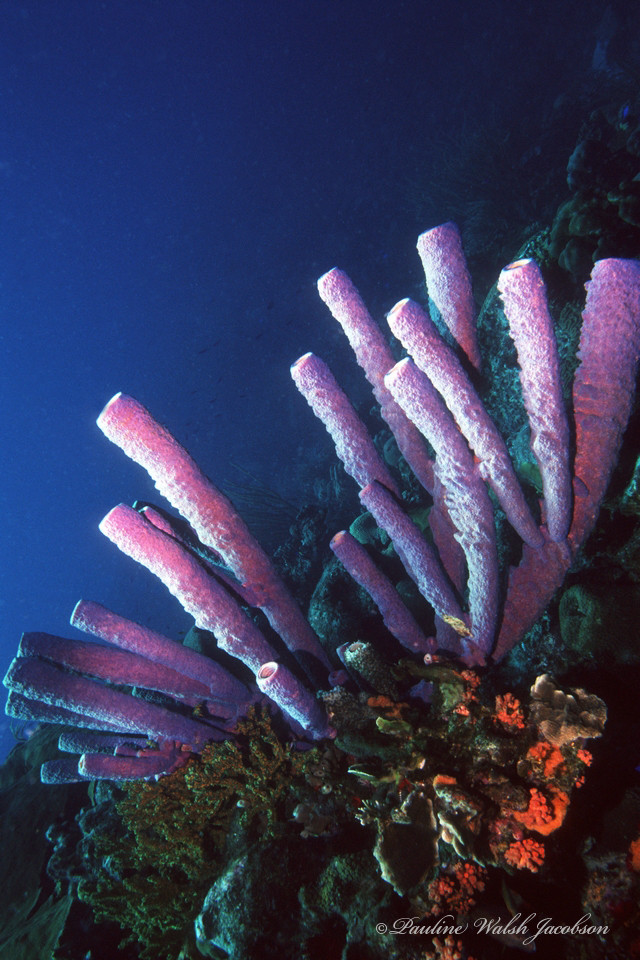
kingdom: Animalia
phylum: Porifera
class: Demospongiae
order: Verongiida
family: Aplysinidae
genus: Aplysina
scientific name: Aplysina archeri
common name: Stove-pipe sponge
